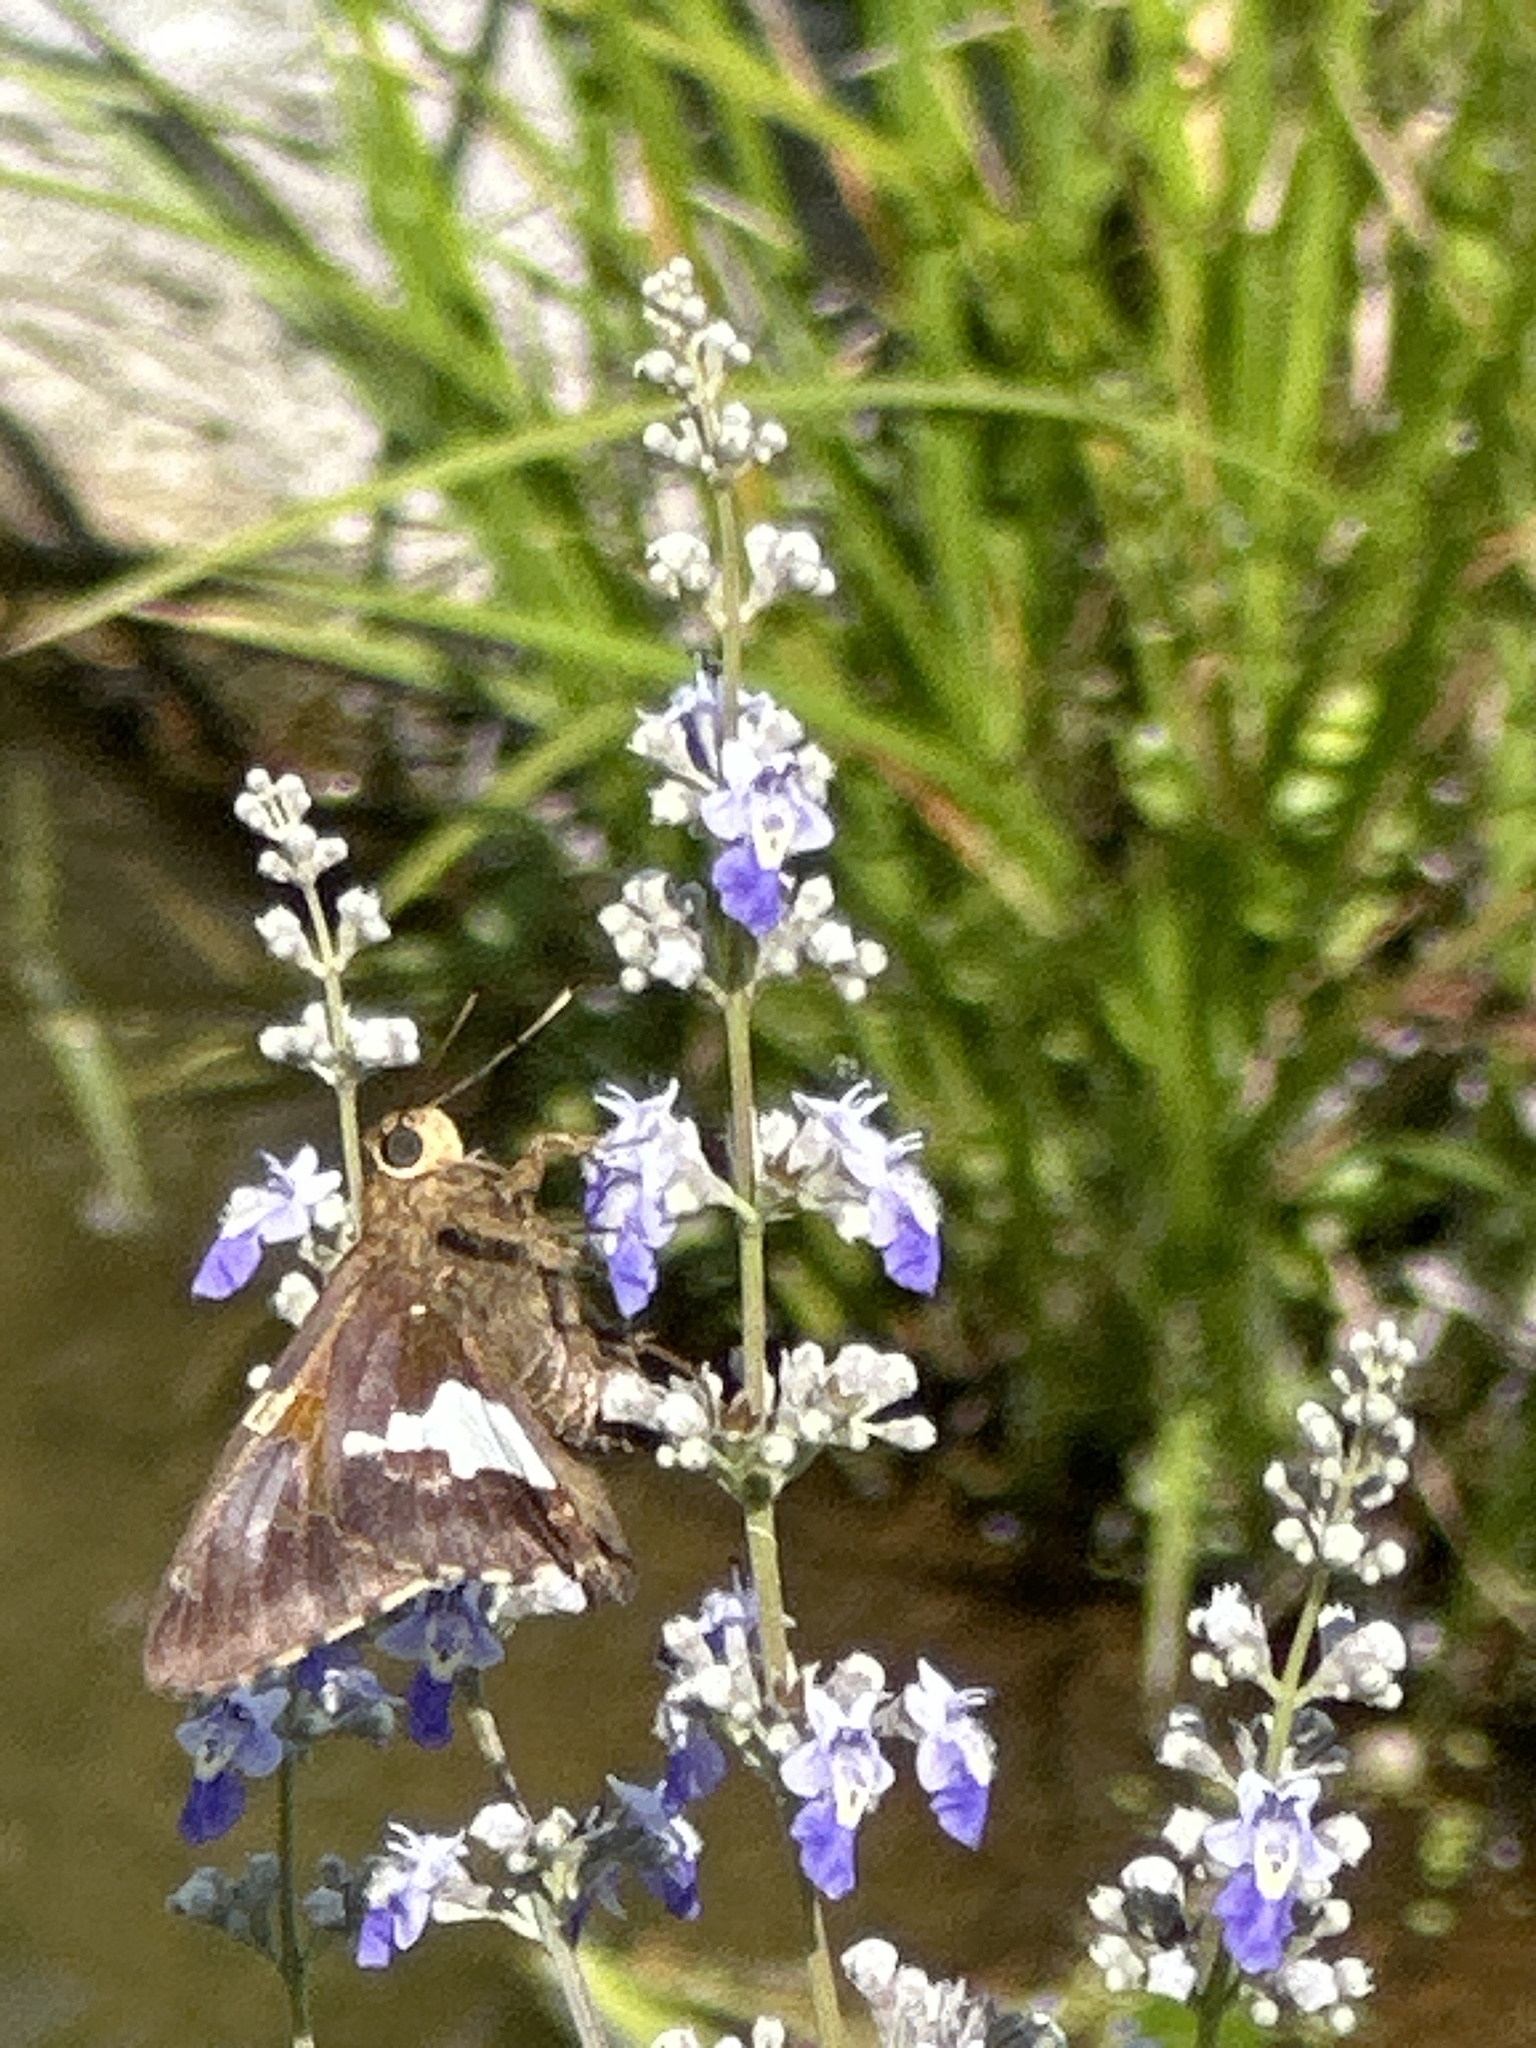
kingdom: Animalia
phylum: Arthropoda
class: Insecta
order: Lepidoptera
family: Hesperiidae
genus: Epargyreus
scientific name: Epargyreus clarus
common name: Silver-spotted skipper
